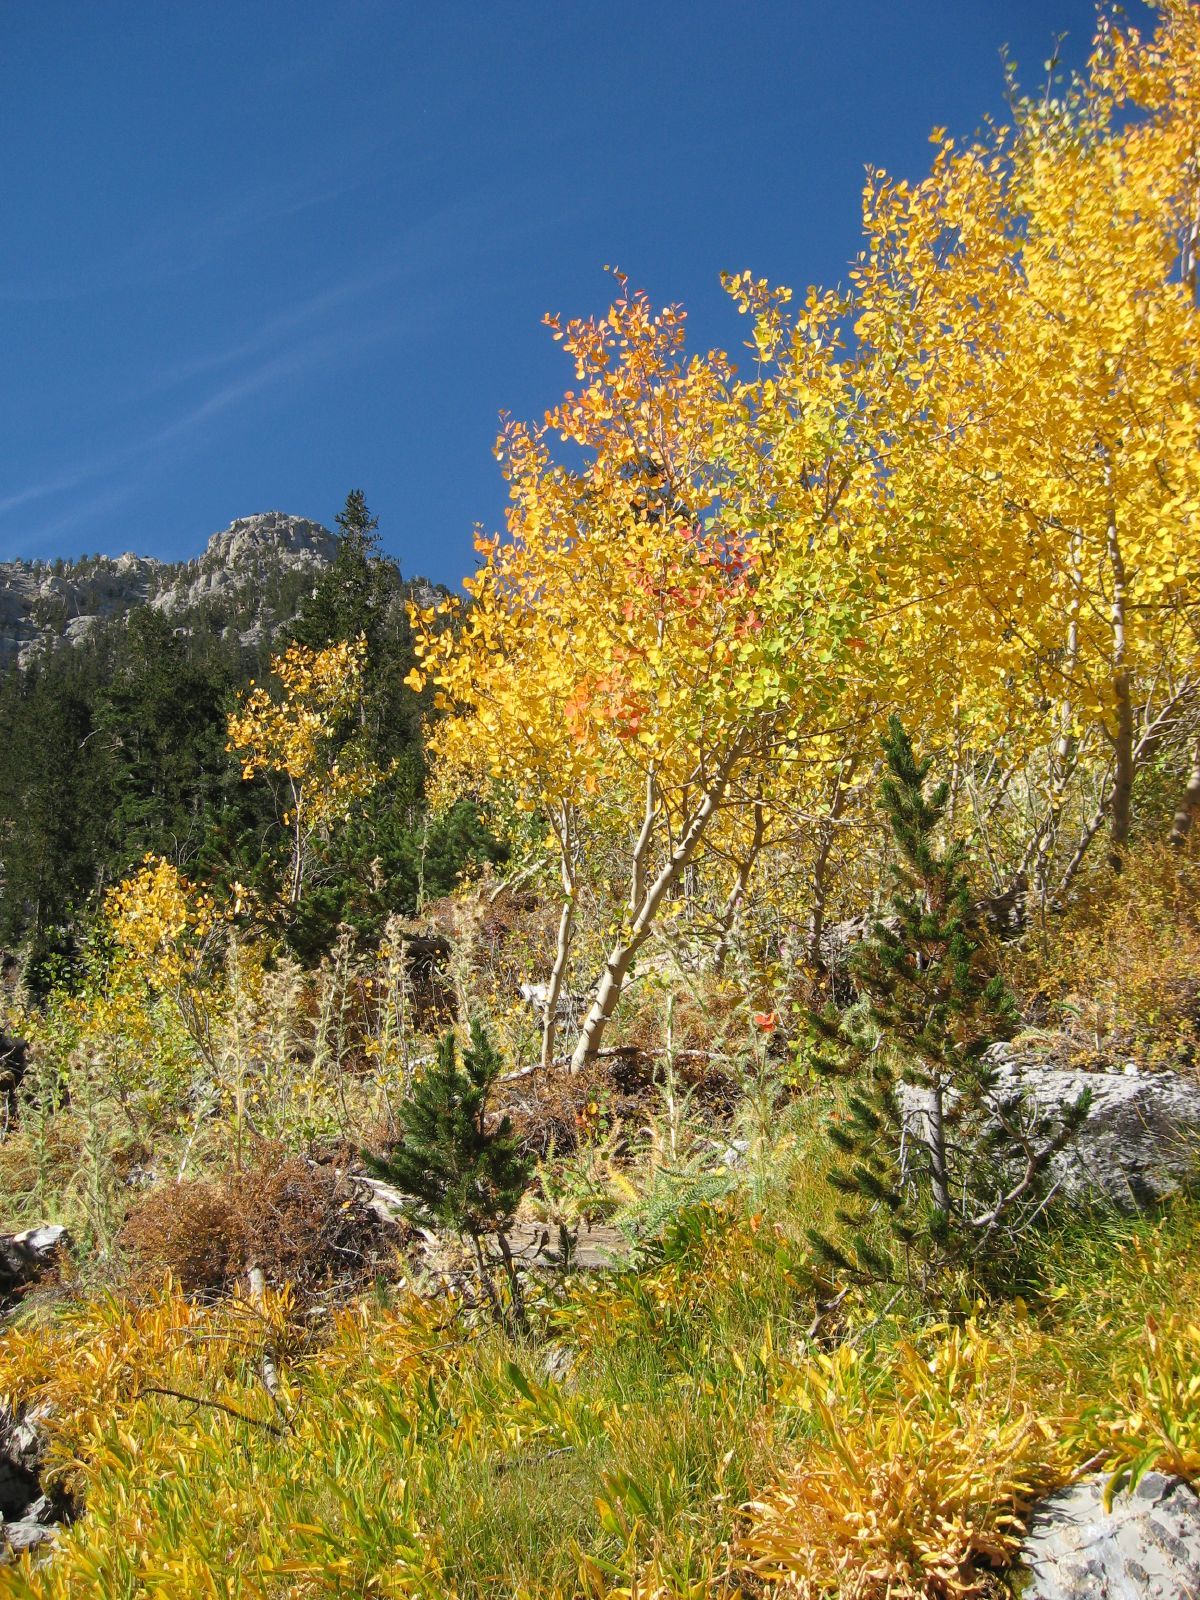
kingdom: Plantae
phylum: Tracheophyta
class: Magnoliopsida
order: Malpighiales
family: Salicaceae
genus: Populus
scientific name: Populus tremuloides
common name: Quaking aspen
